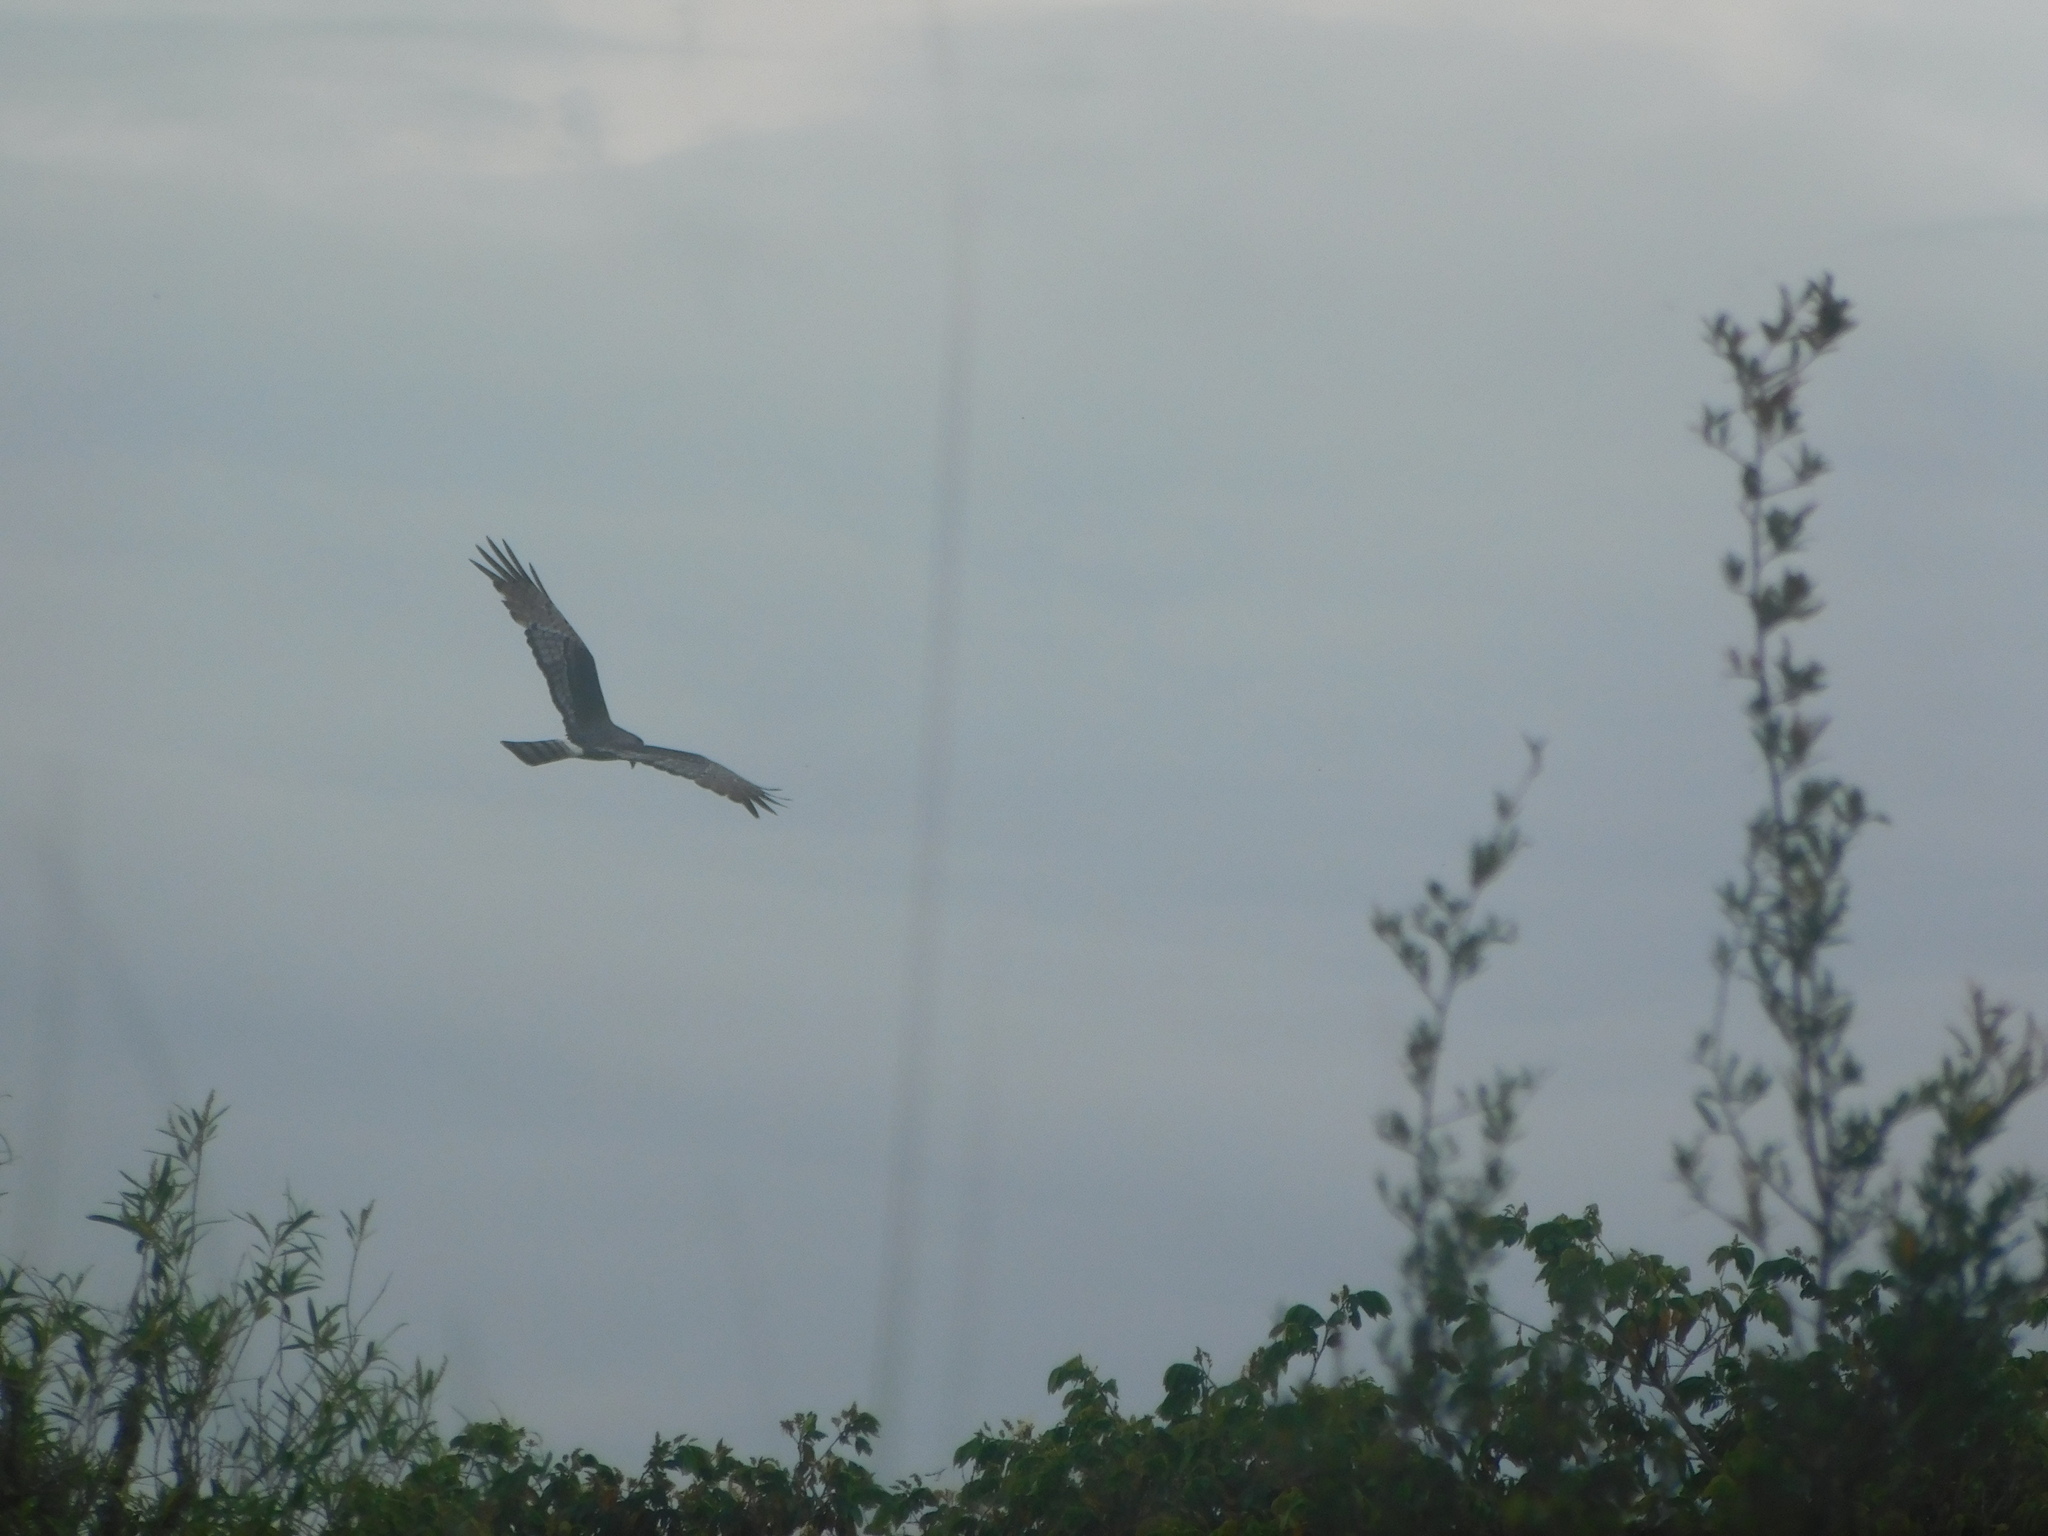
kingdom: Animalia
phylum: Chordata
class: Aves
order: Accipitriformes
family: Accipitridae
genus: Circus
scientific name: Circus buffoni
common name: Long-winged harrier
